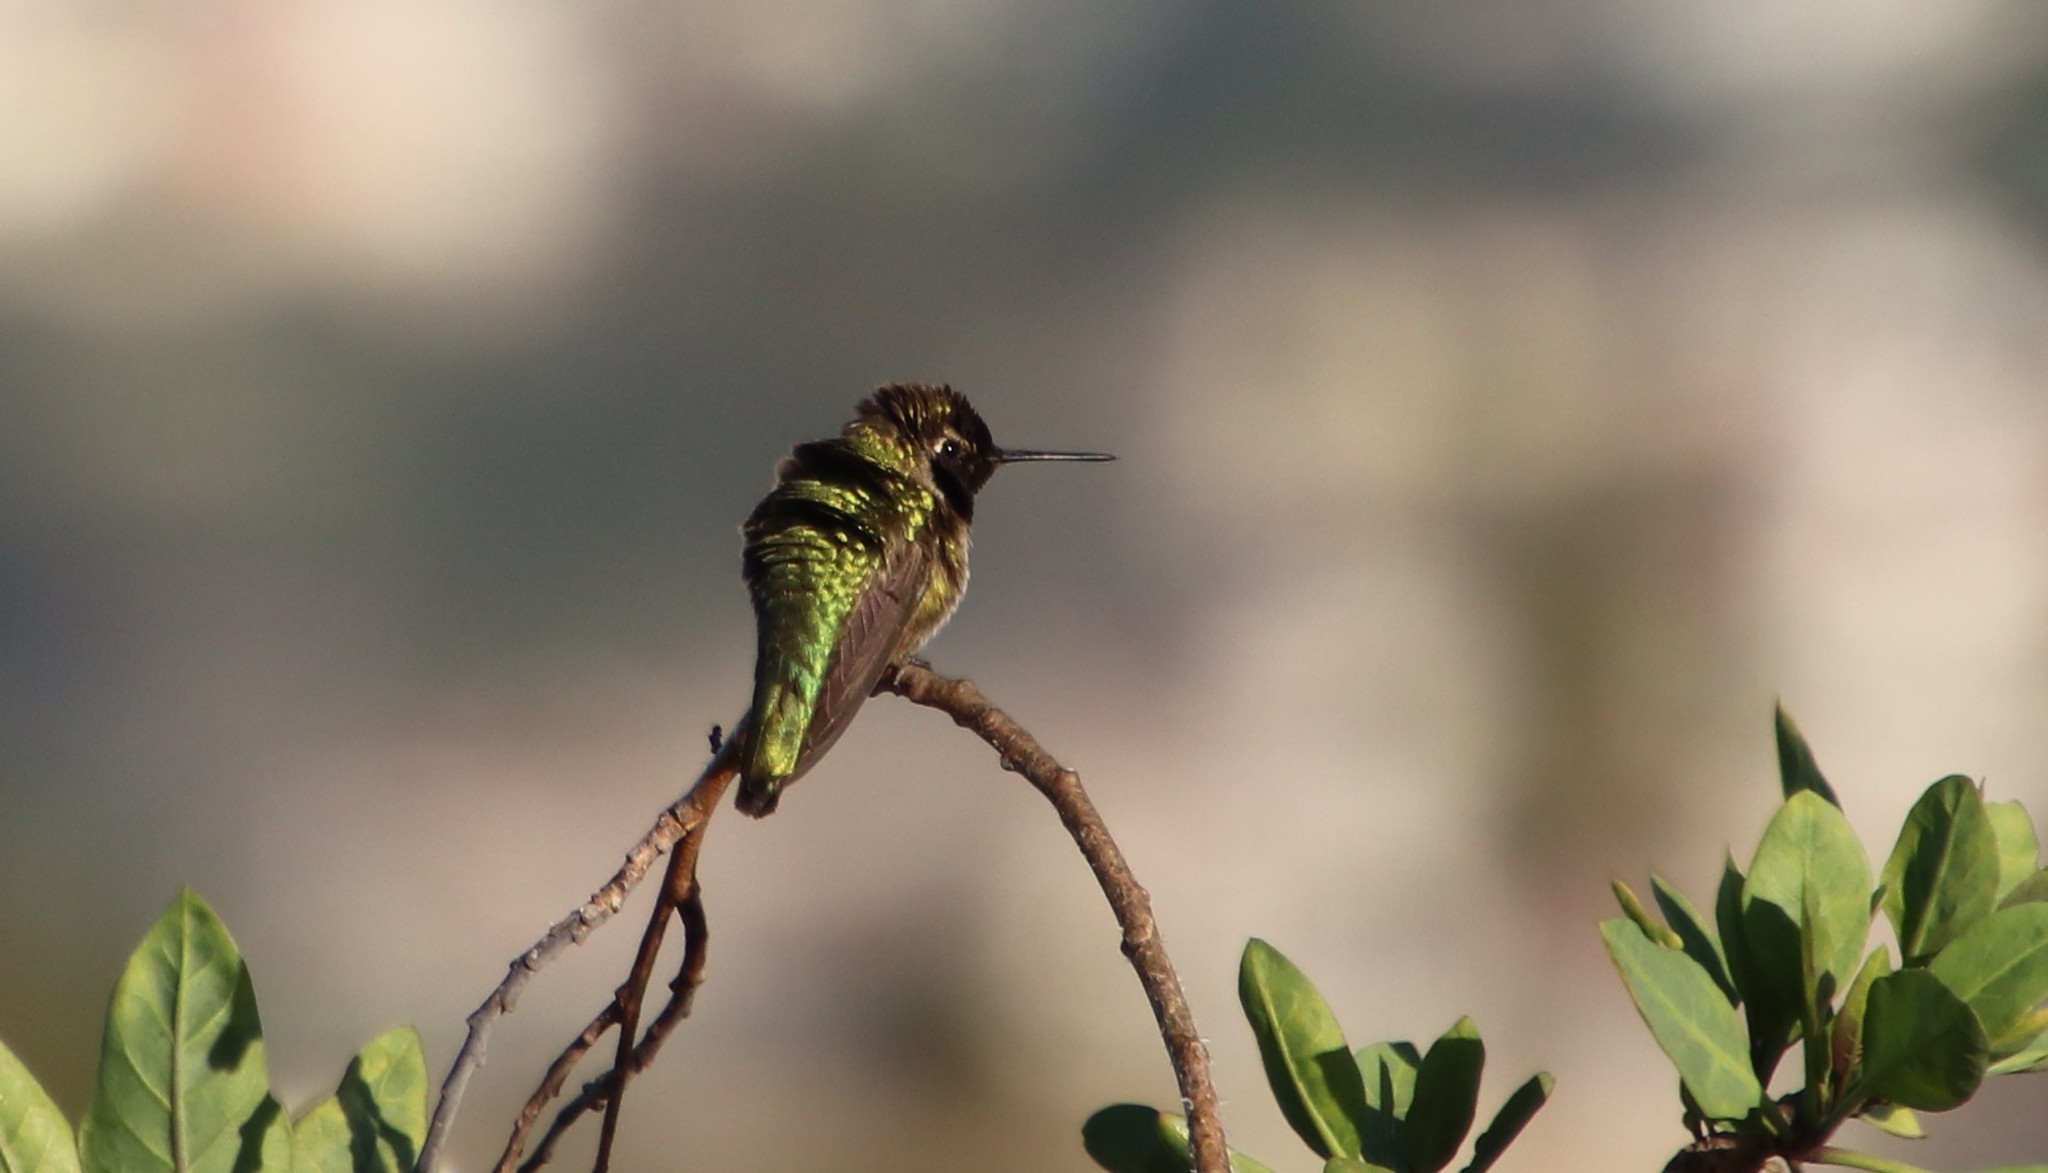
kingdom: Animalia
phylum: Chordata
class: Aves
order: Apodiformes
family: Trochilidae
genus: Calypte
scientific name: Calypte anna
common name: Anna's hummingbird
